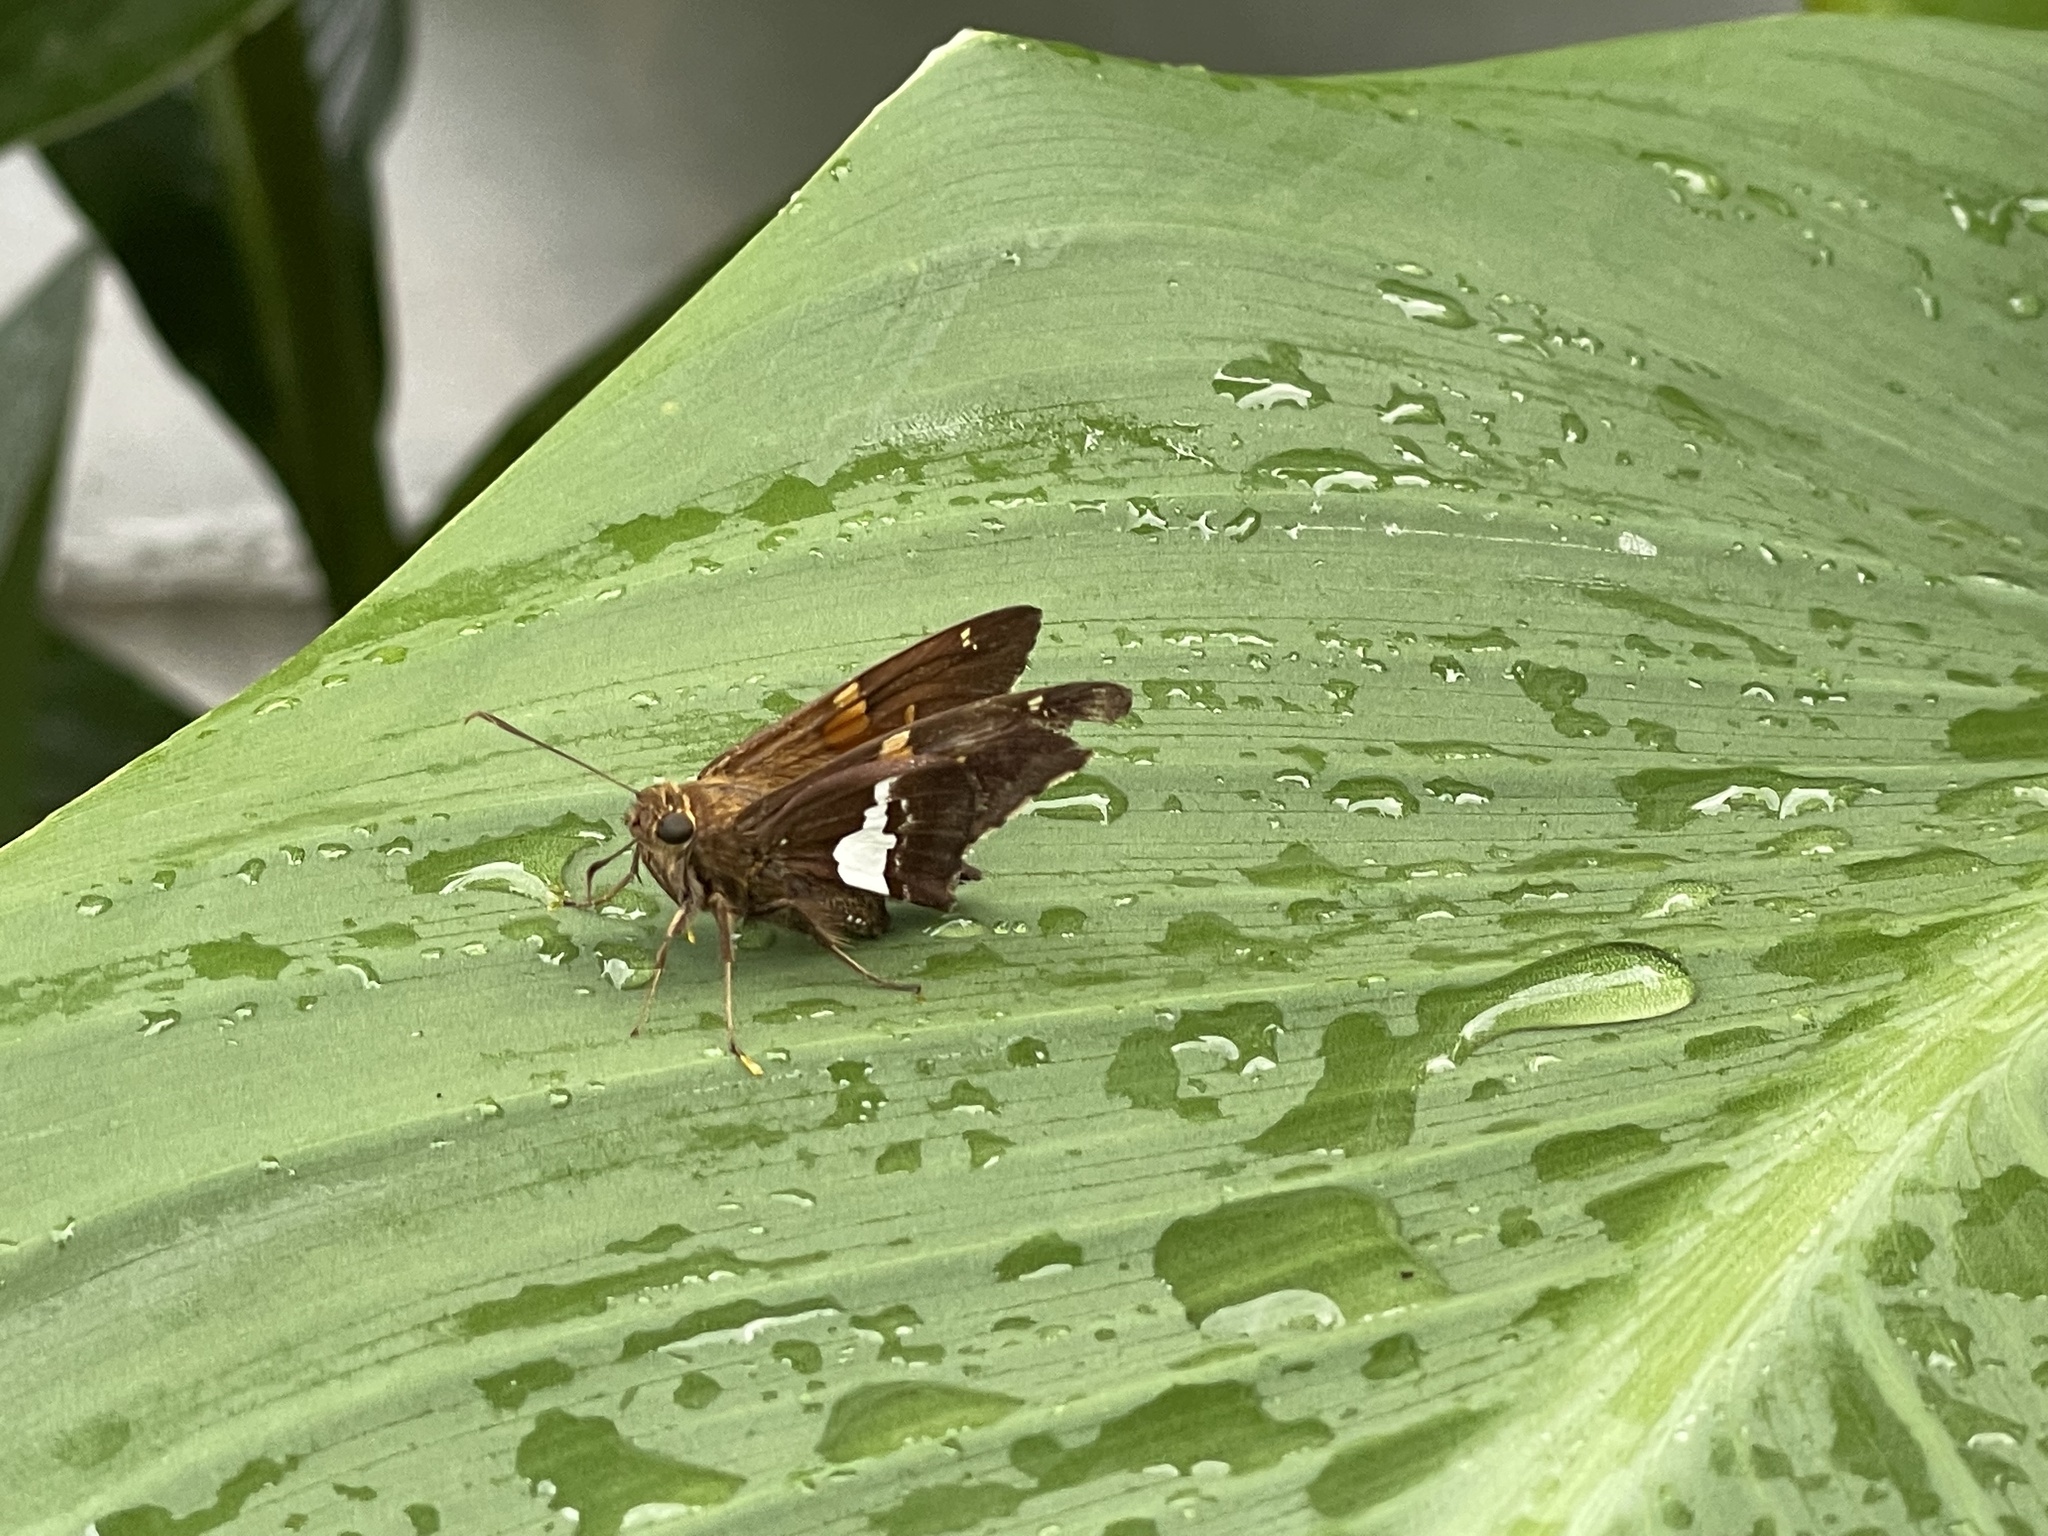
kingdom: Animalia
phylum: Arthropoda
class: Insecta
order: Lepidoptera
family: Hesperiidae
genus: Epargyreus
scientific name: Epargyreus clarus
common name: Silver-spotted skipper
